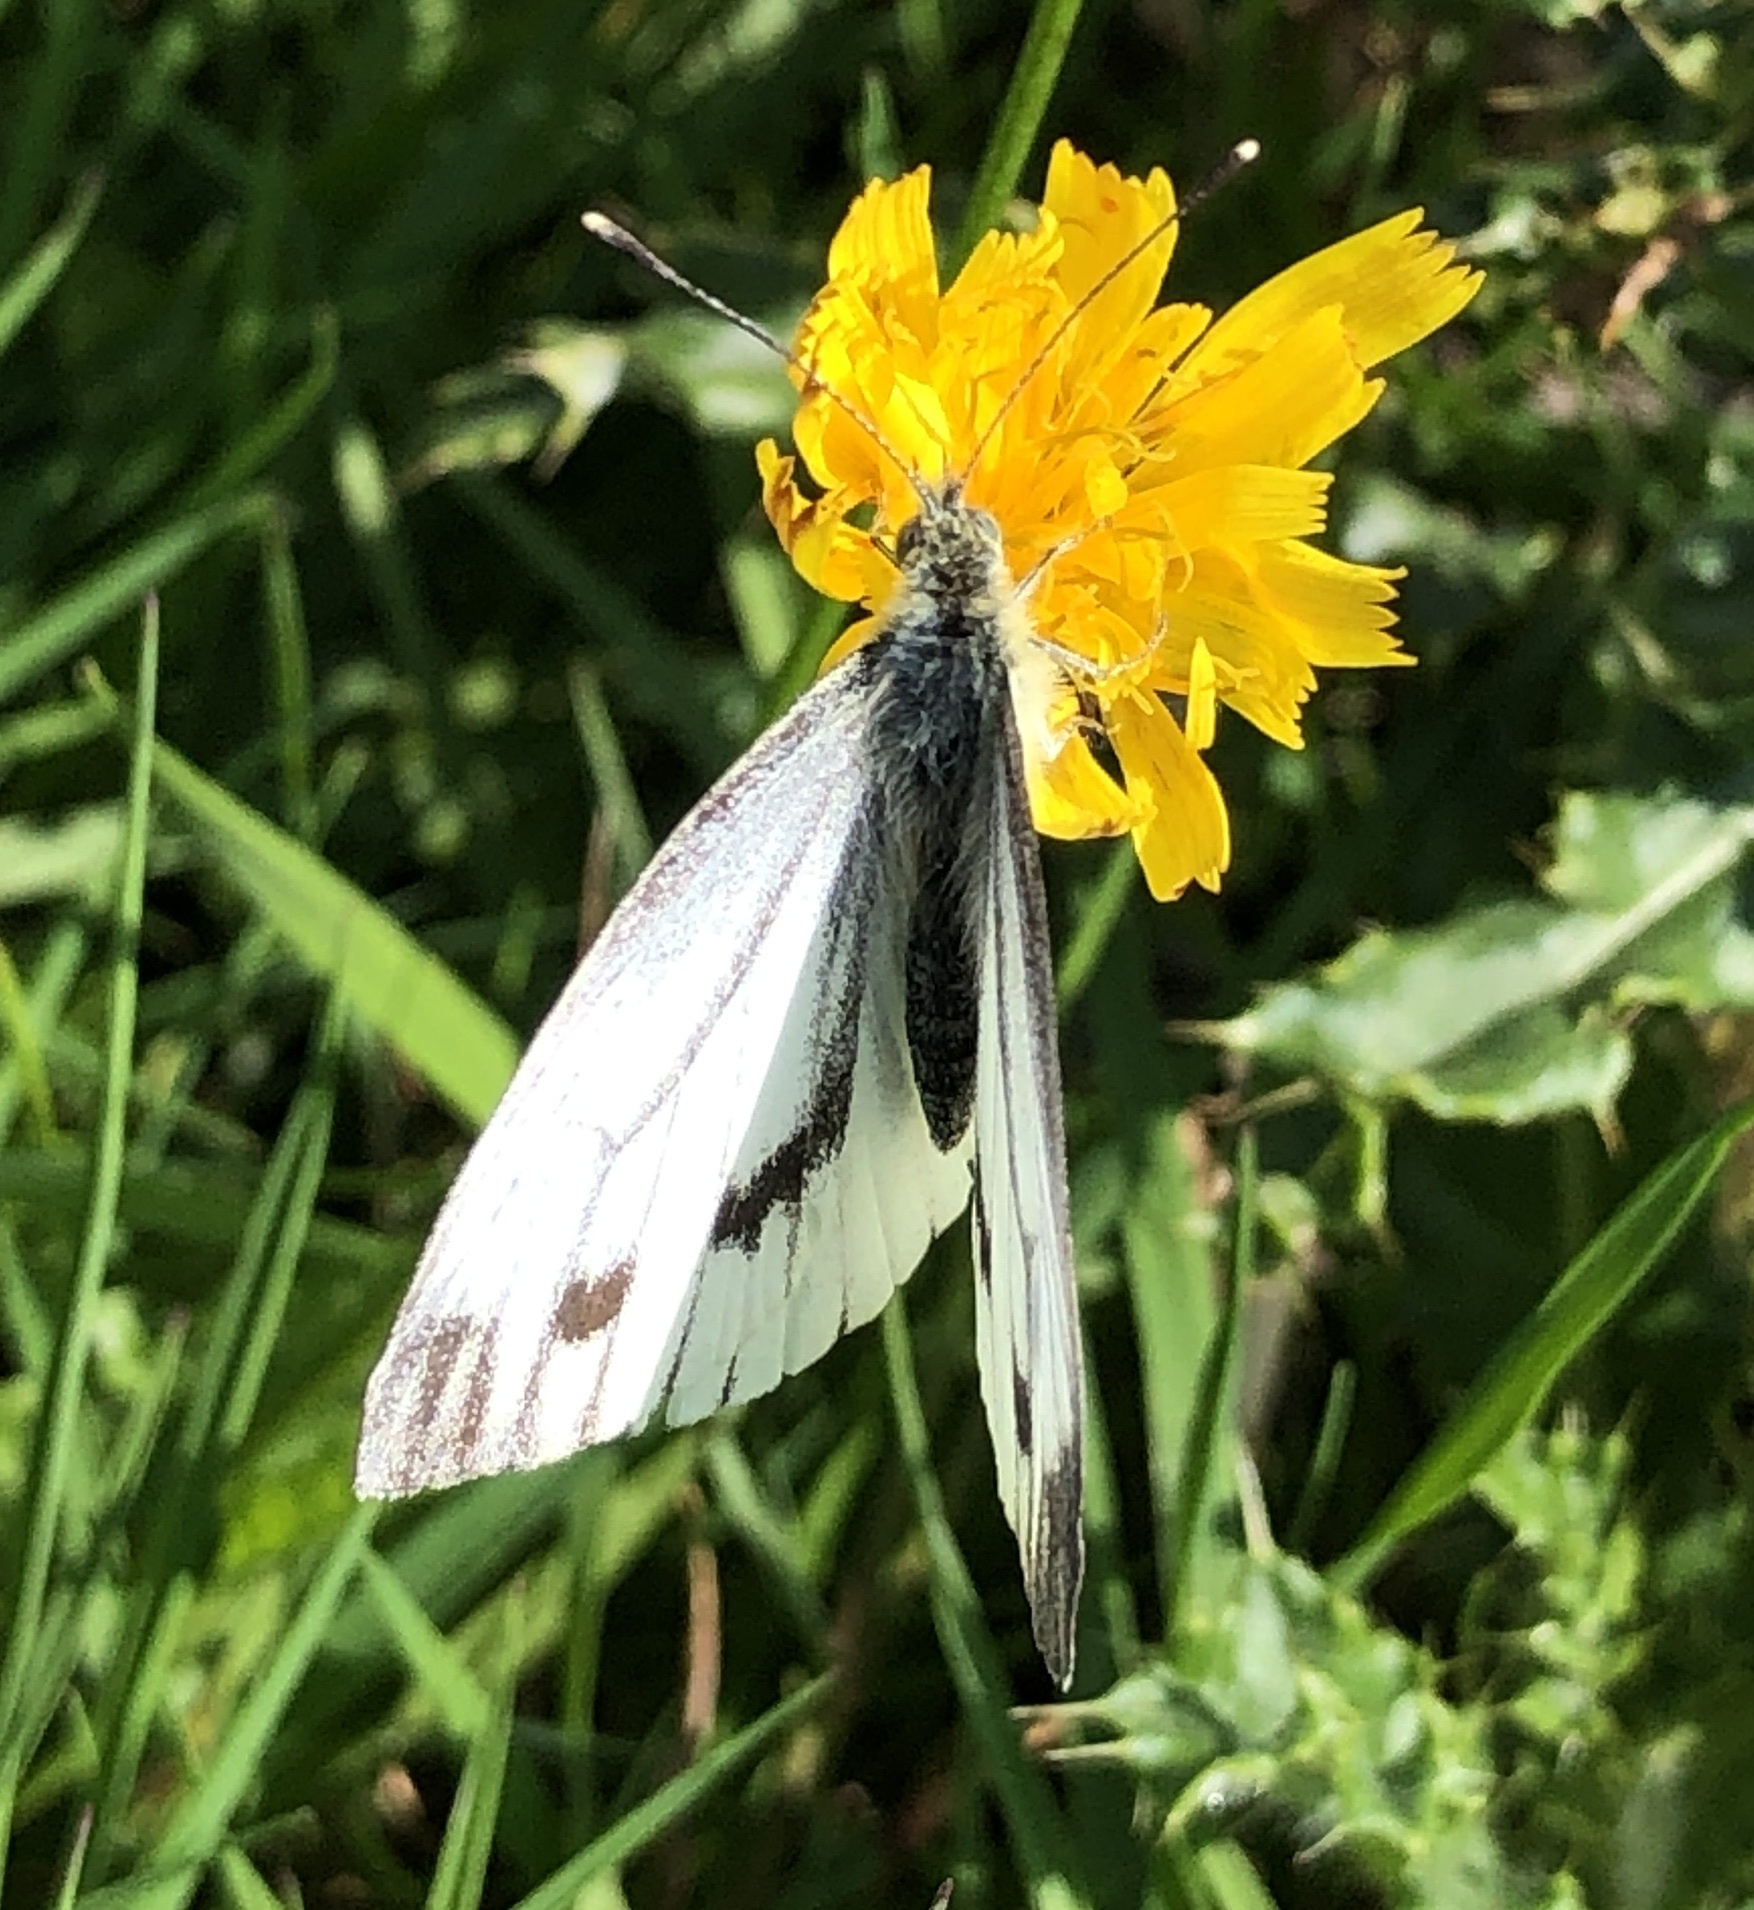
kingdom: Animalia
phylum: Arthropoda
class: Insecta
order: Lepidoptera
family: Pieridae
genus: Pieris
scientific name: Pieris napi
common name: Green-veined white
